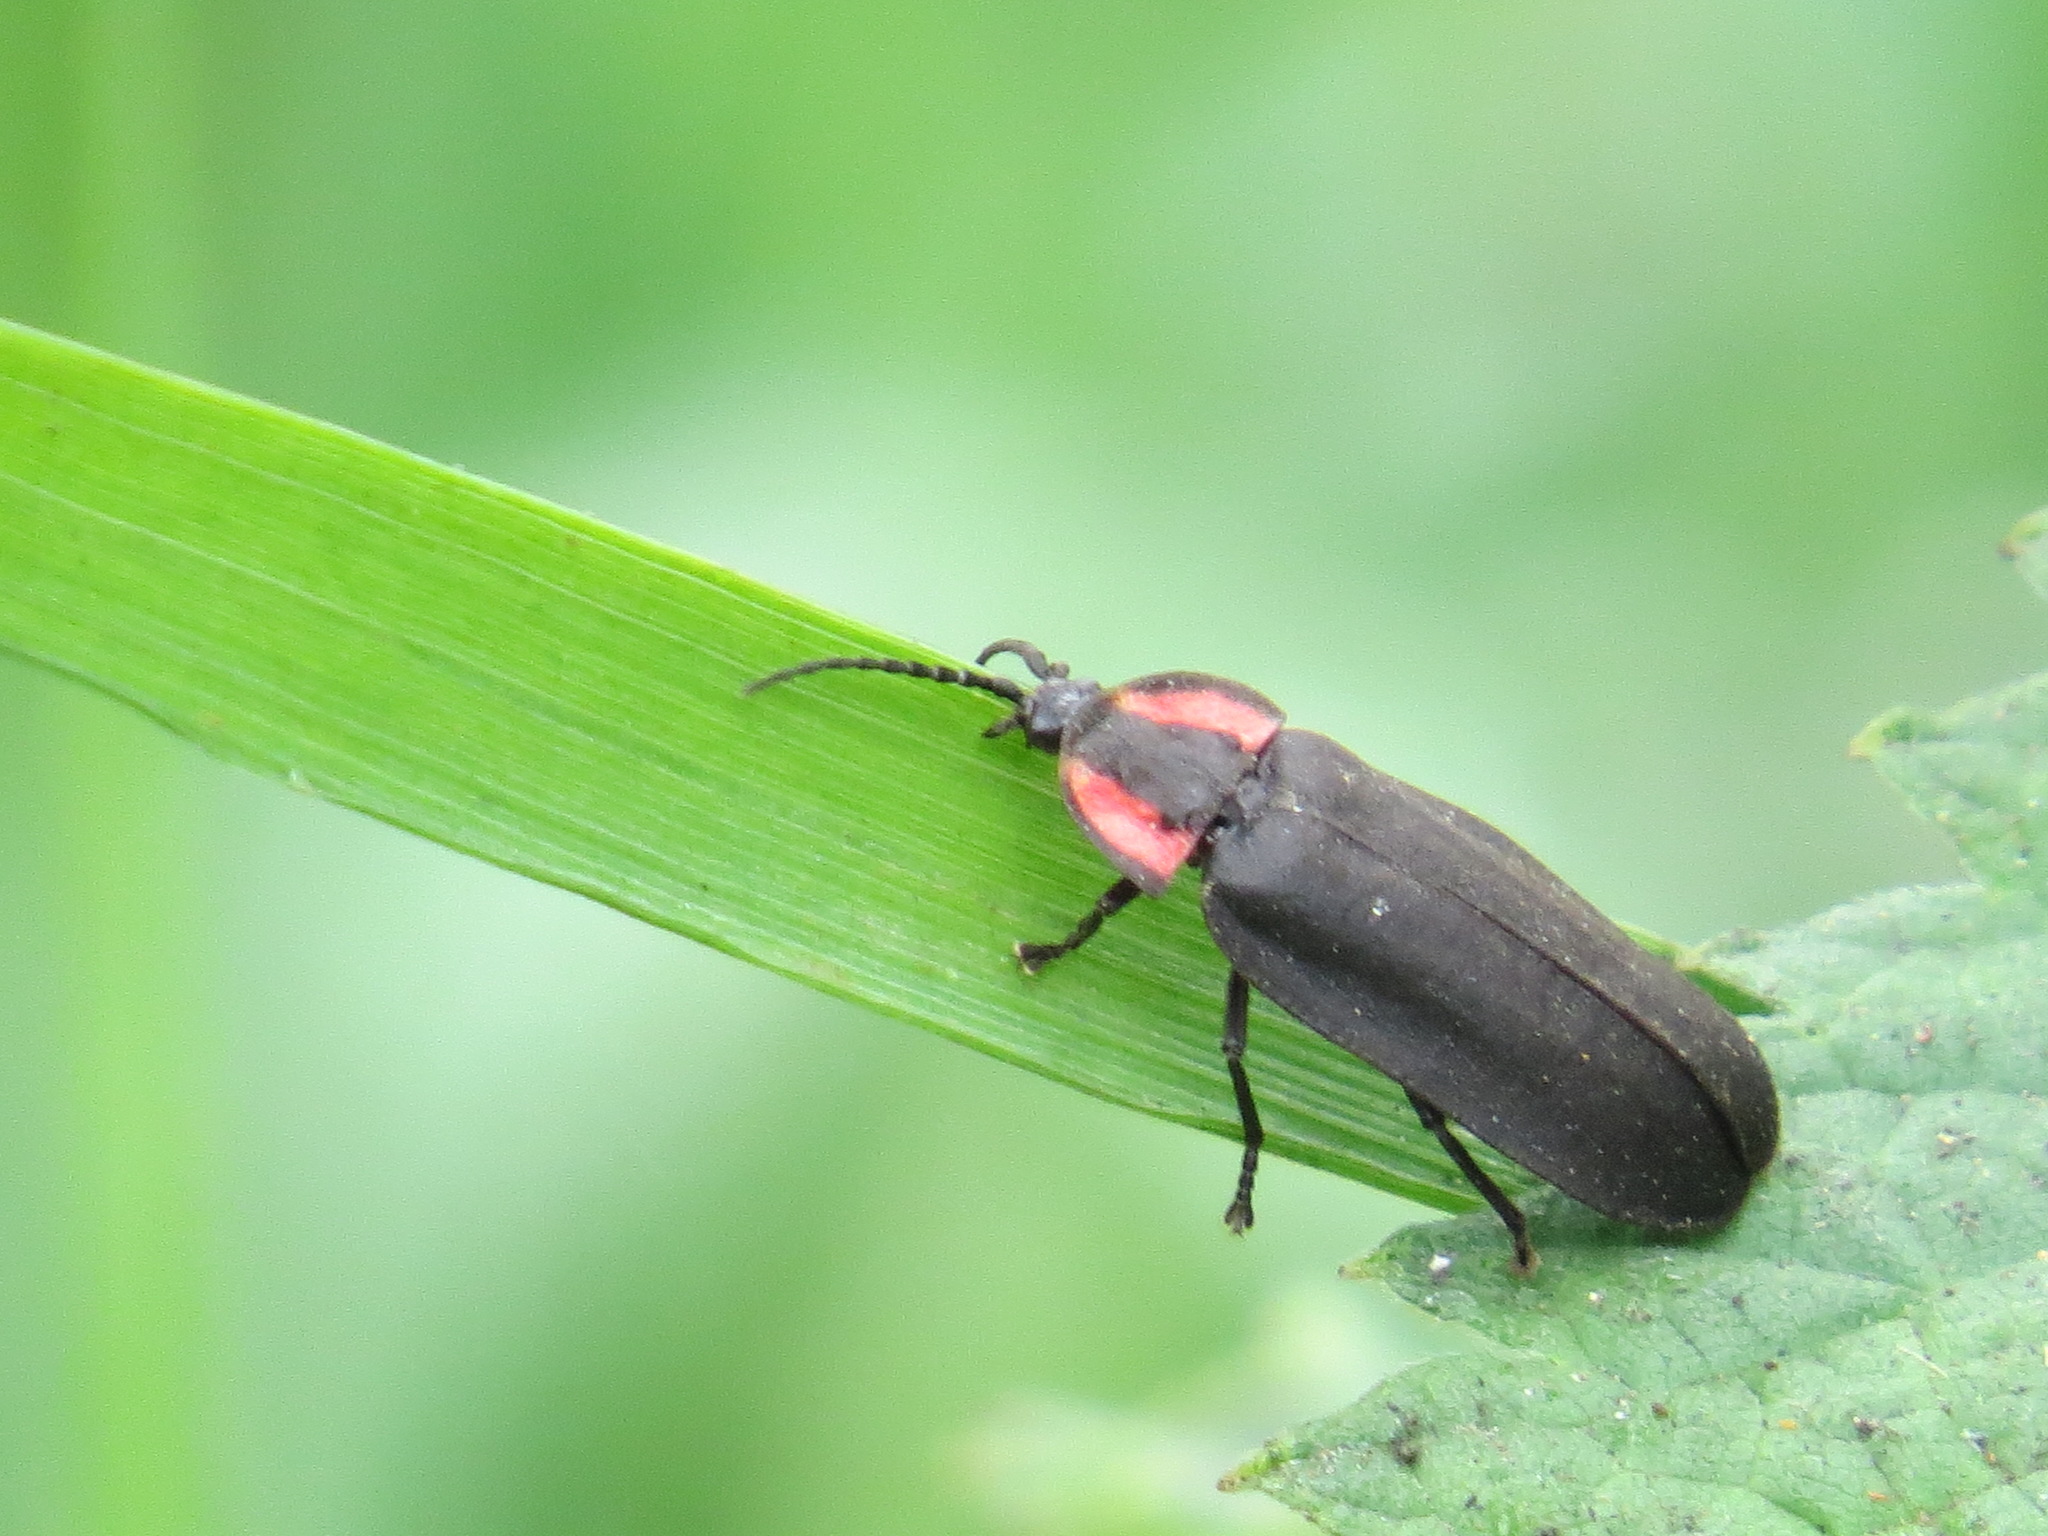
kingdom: Animalia
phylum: Arthropoda
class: Insecta
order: Coleoptera
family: Lampyridae
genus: Photinus
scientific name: Photinus californica
